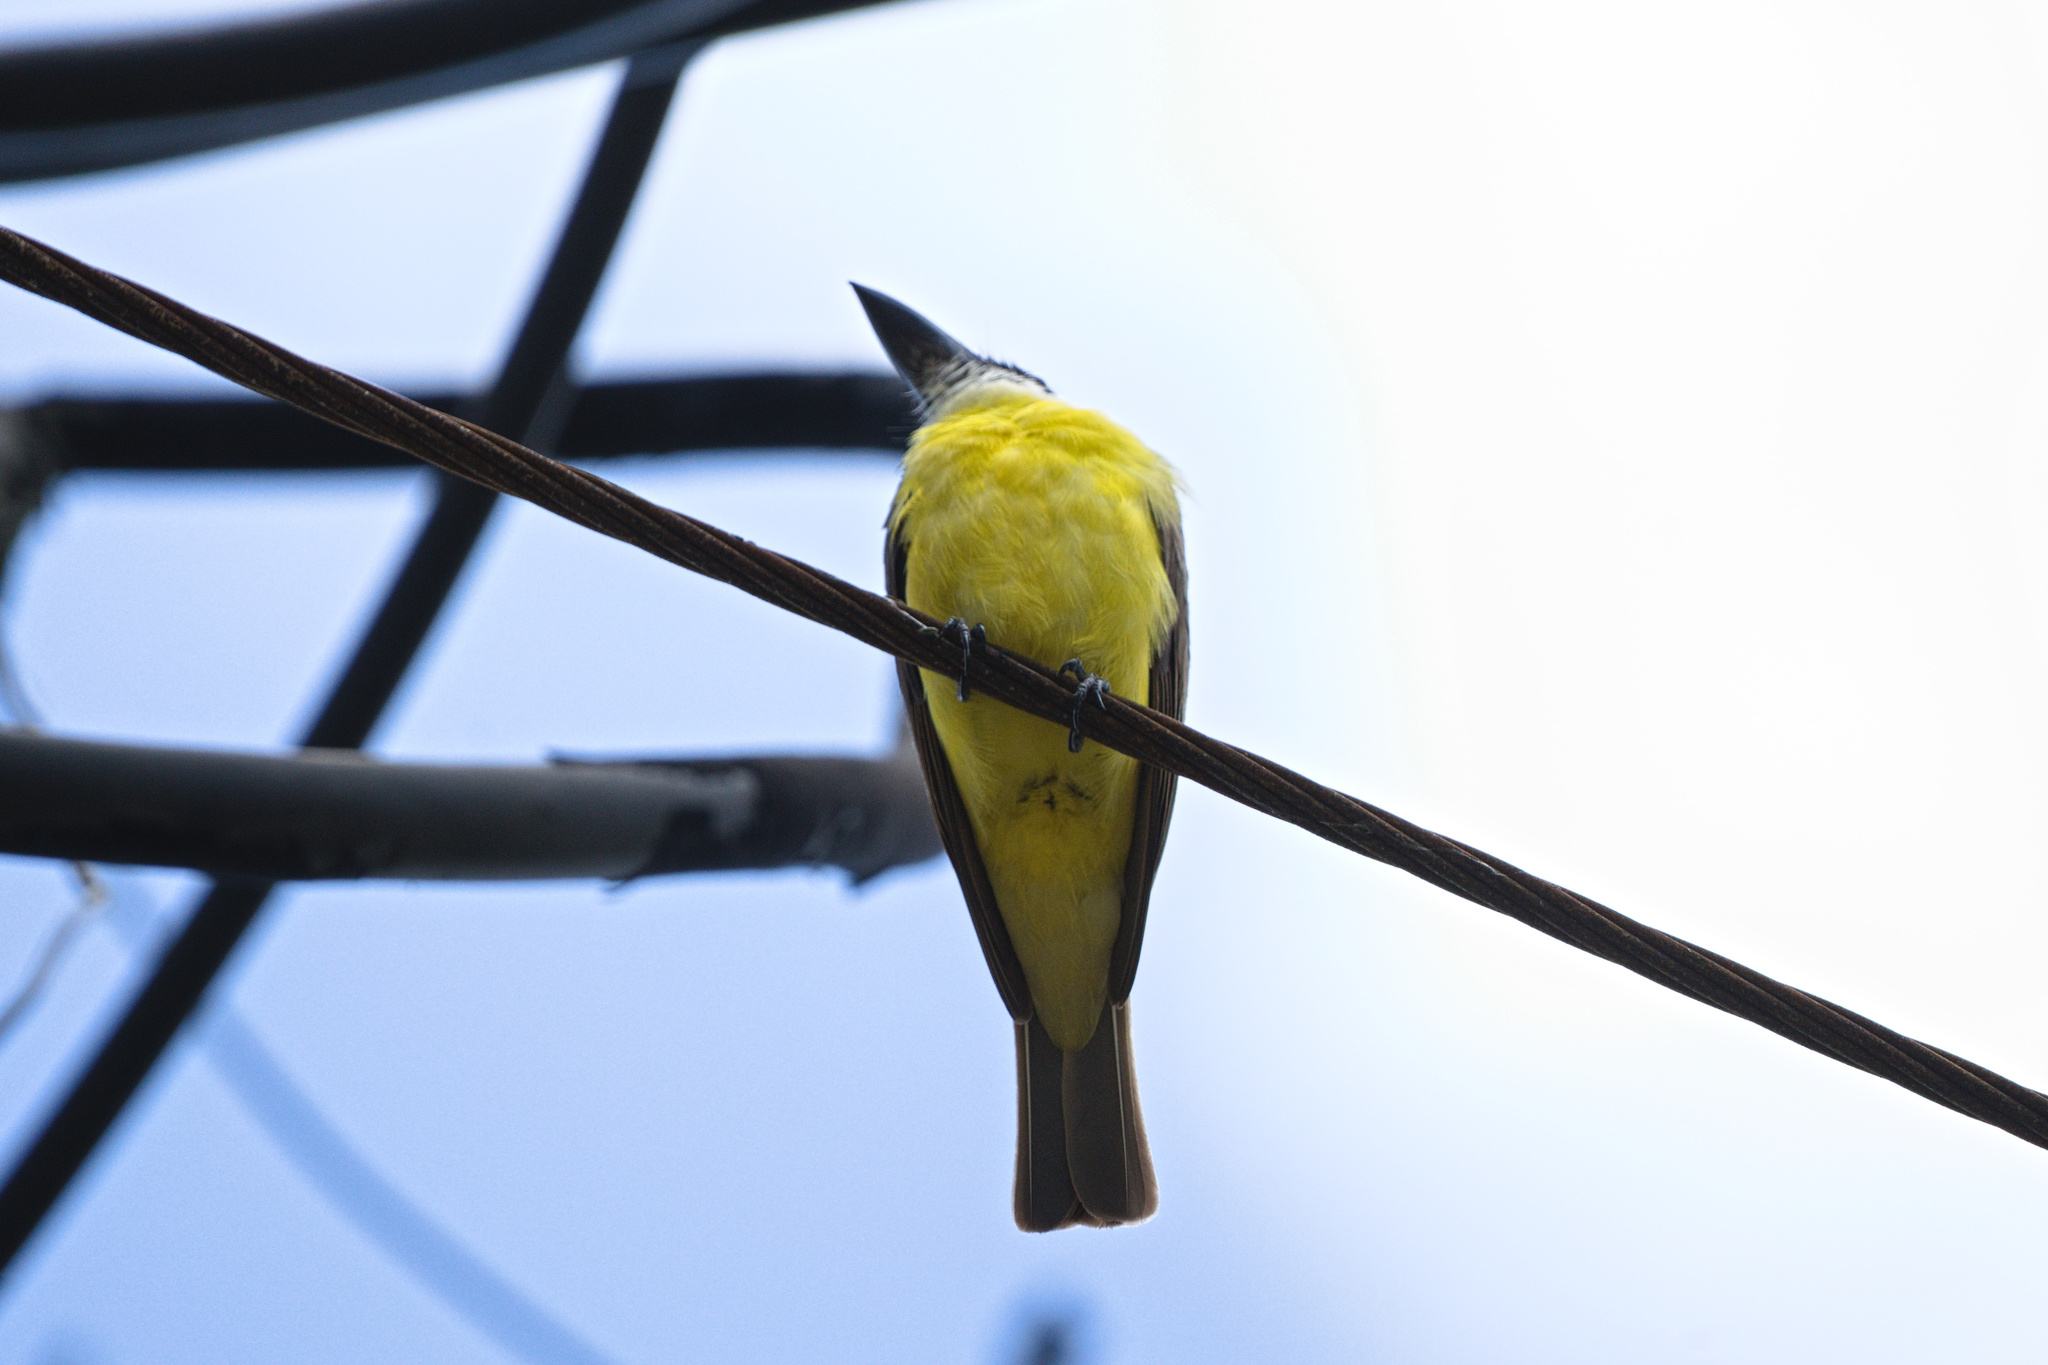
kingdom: Animalia
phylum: Chordata
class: Aves
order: Passeriformes
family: Tyrannidae
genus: Megarynchus
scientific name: Megarynchus pitangua
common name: Boat-billed flycatcher
